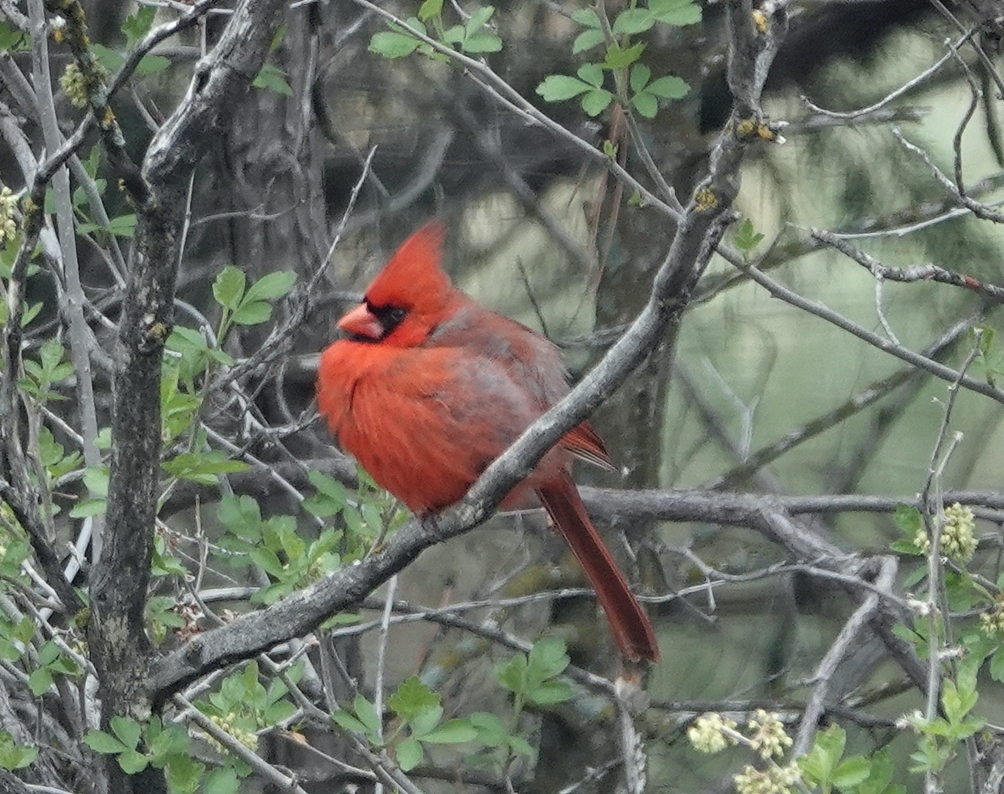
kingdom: Animalia
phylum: Chordata
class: Aves
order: Passeriformes
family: Cardinalidae
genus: Cardinalis
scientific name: Cardinalis cardinalis
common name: Northern cardinal
